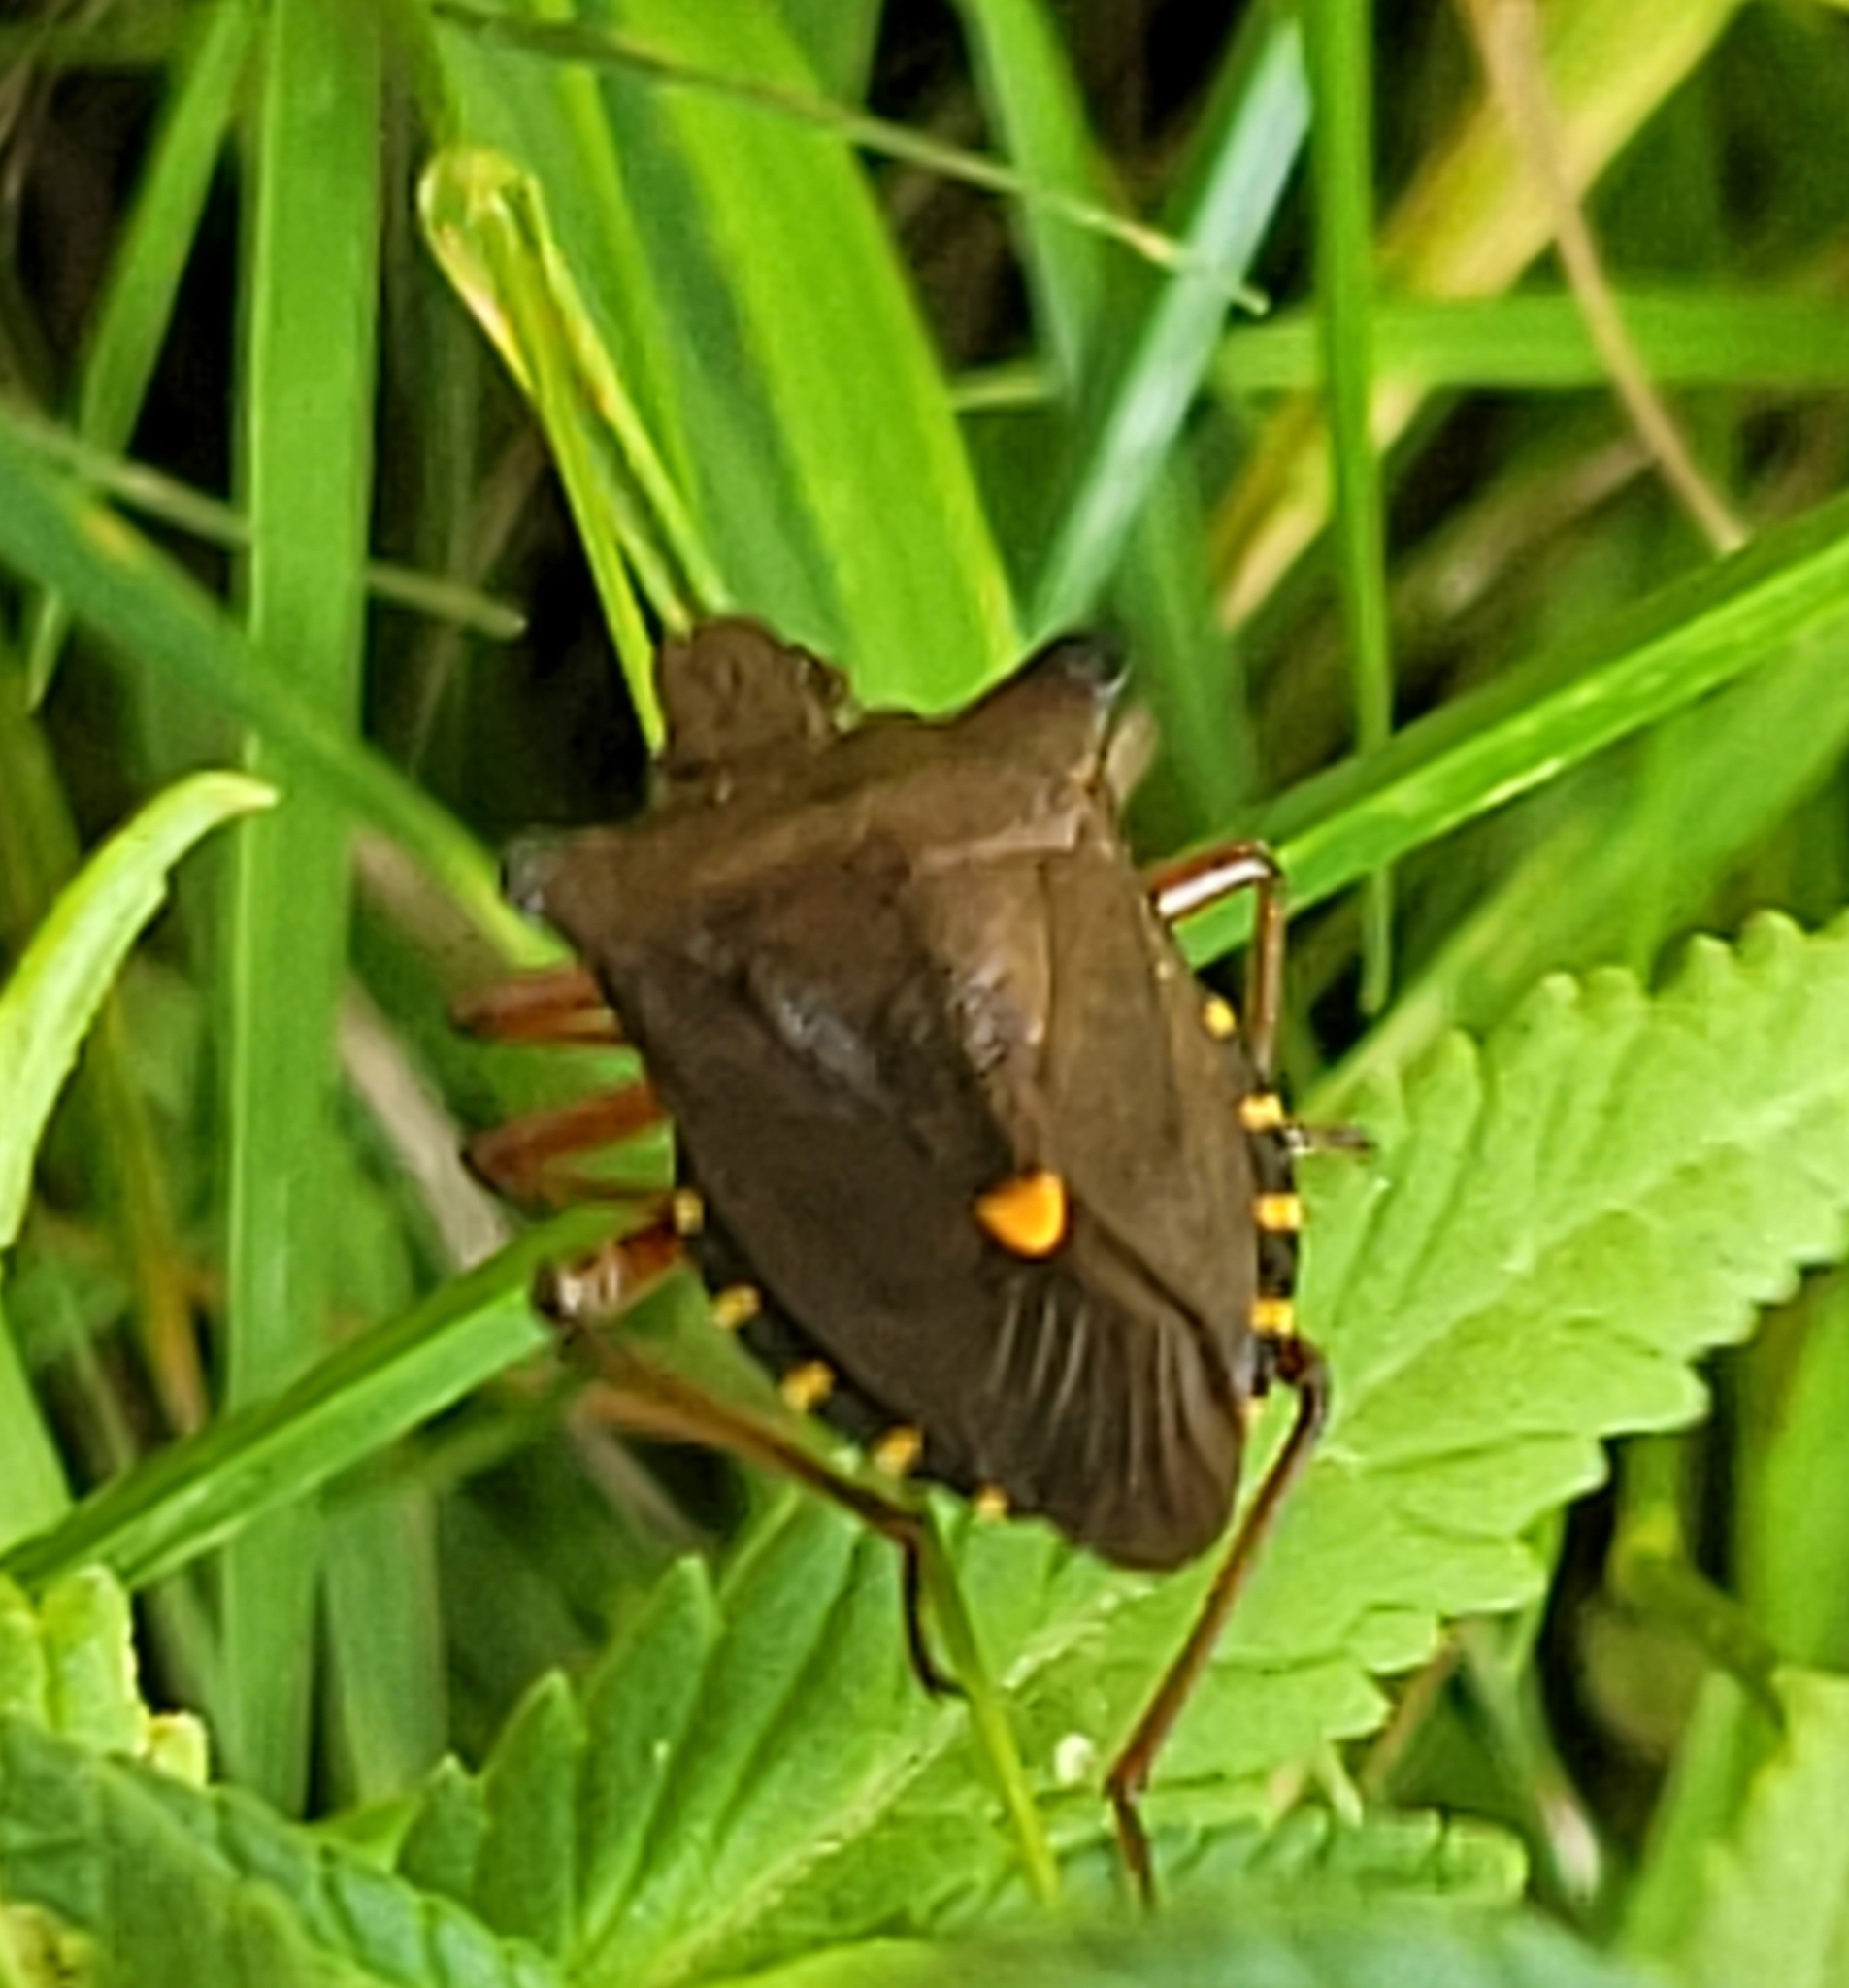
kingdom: Animalia
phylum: Arthropoda
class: Insecta
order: Hemiptera
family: Pentatomidae
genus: Pentatoma
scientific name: Pentatoma rufipes
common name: Forest bug
